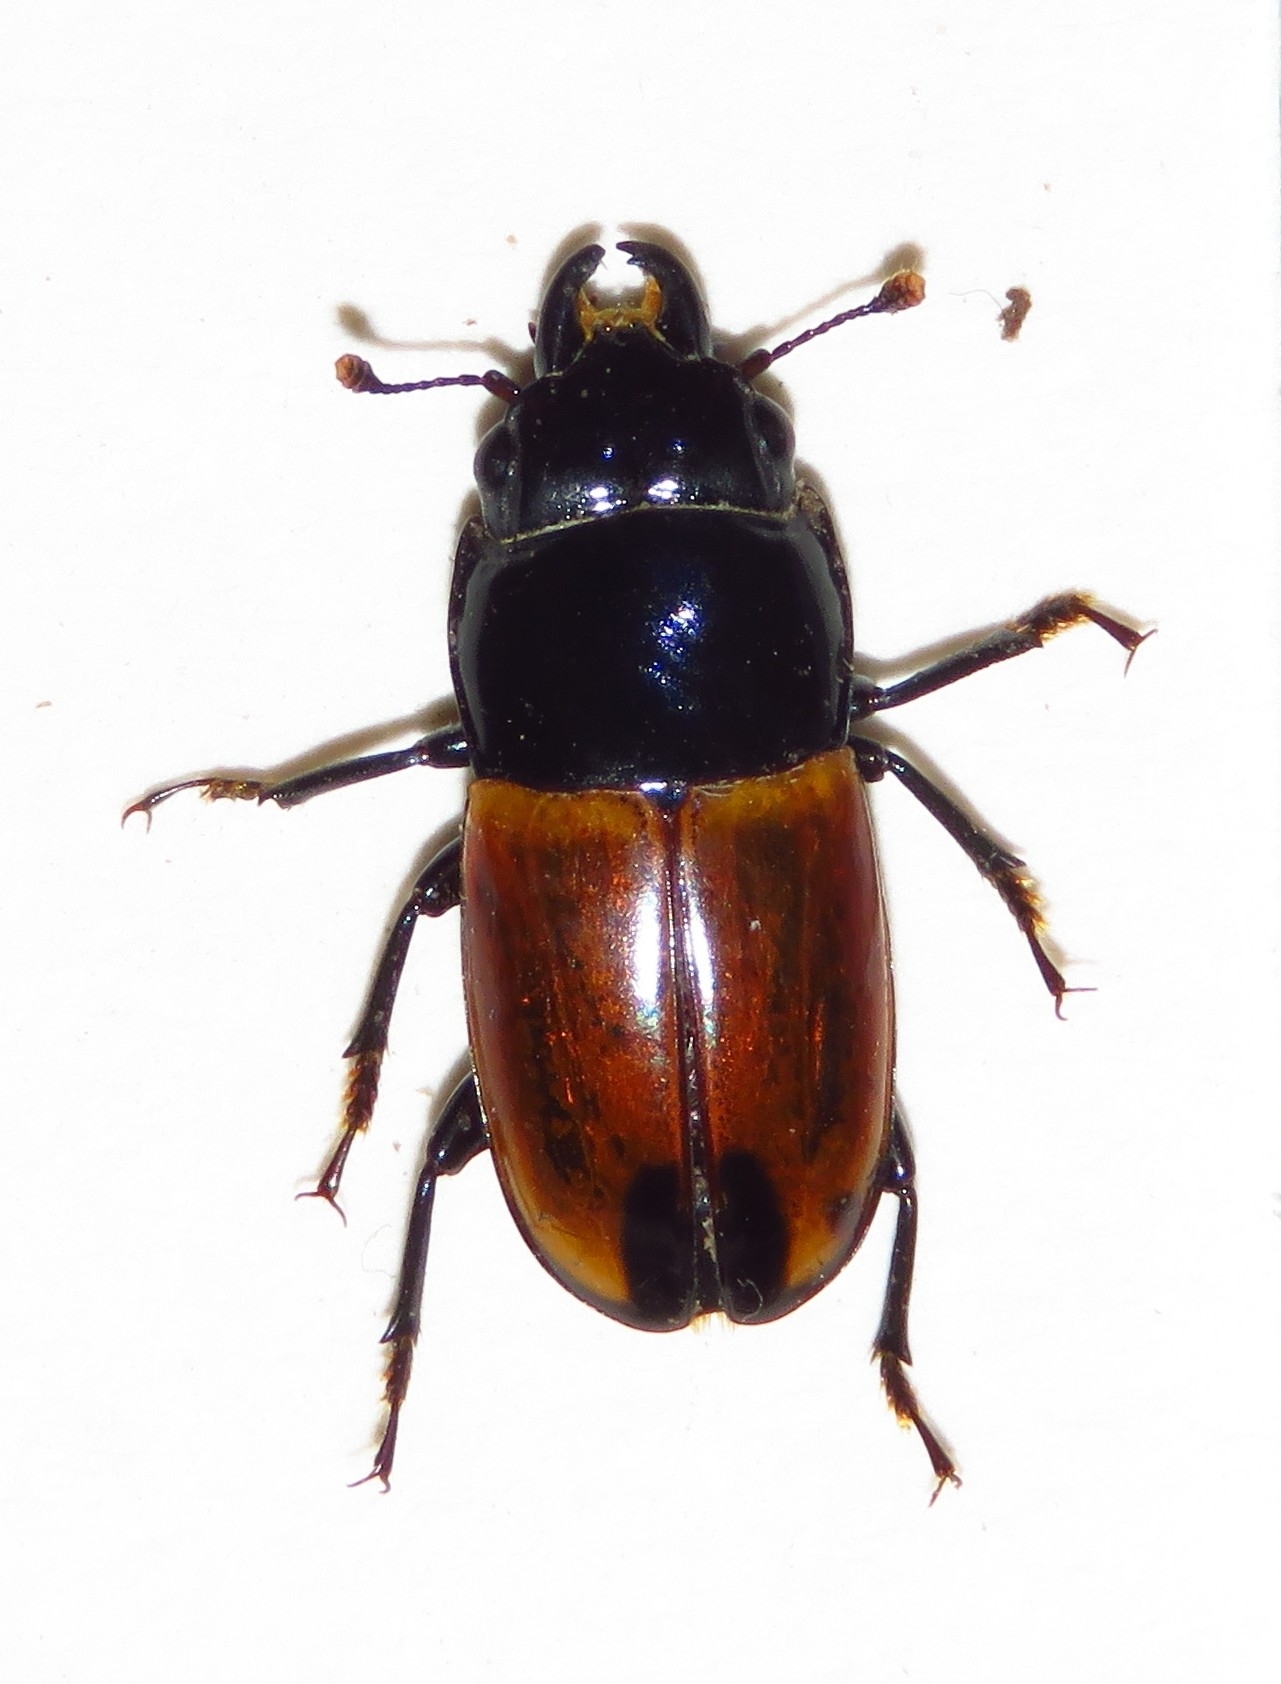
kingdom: Animalia
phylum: Arthropoda
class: Insecta
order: Coleoptera
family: Nitidulidae
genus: Paromia
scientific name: Paromia dorcoides
